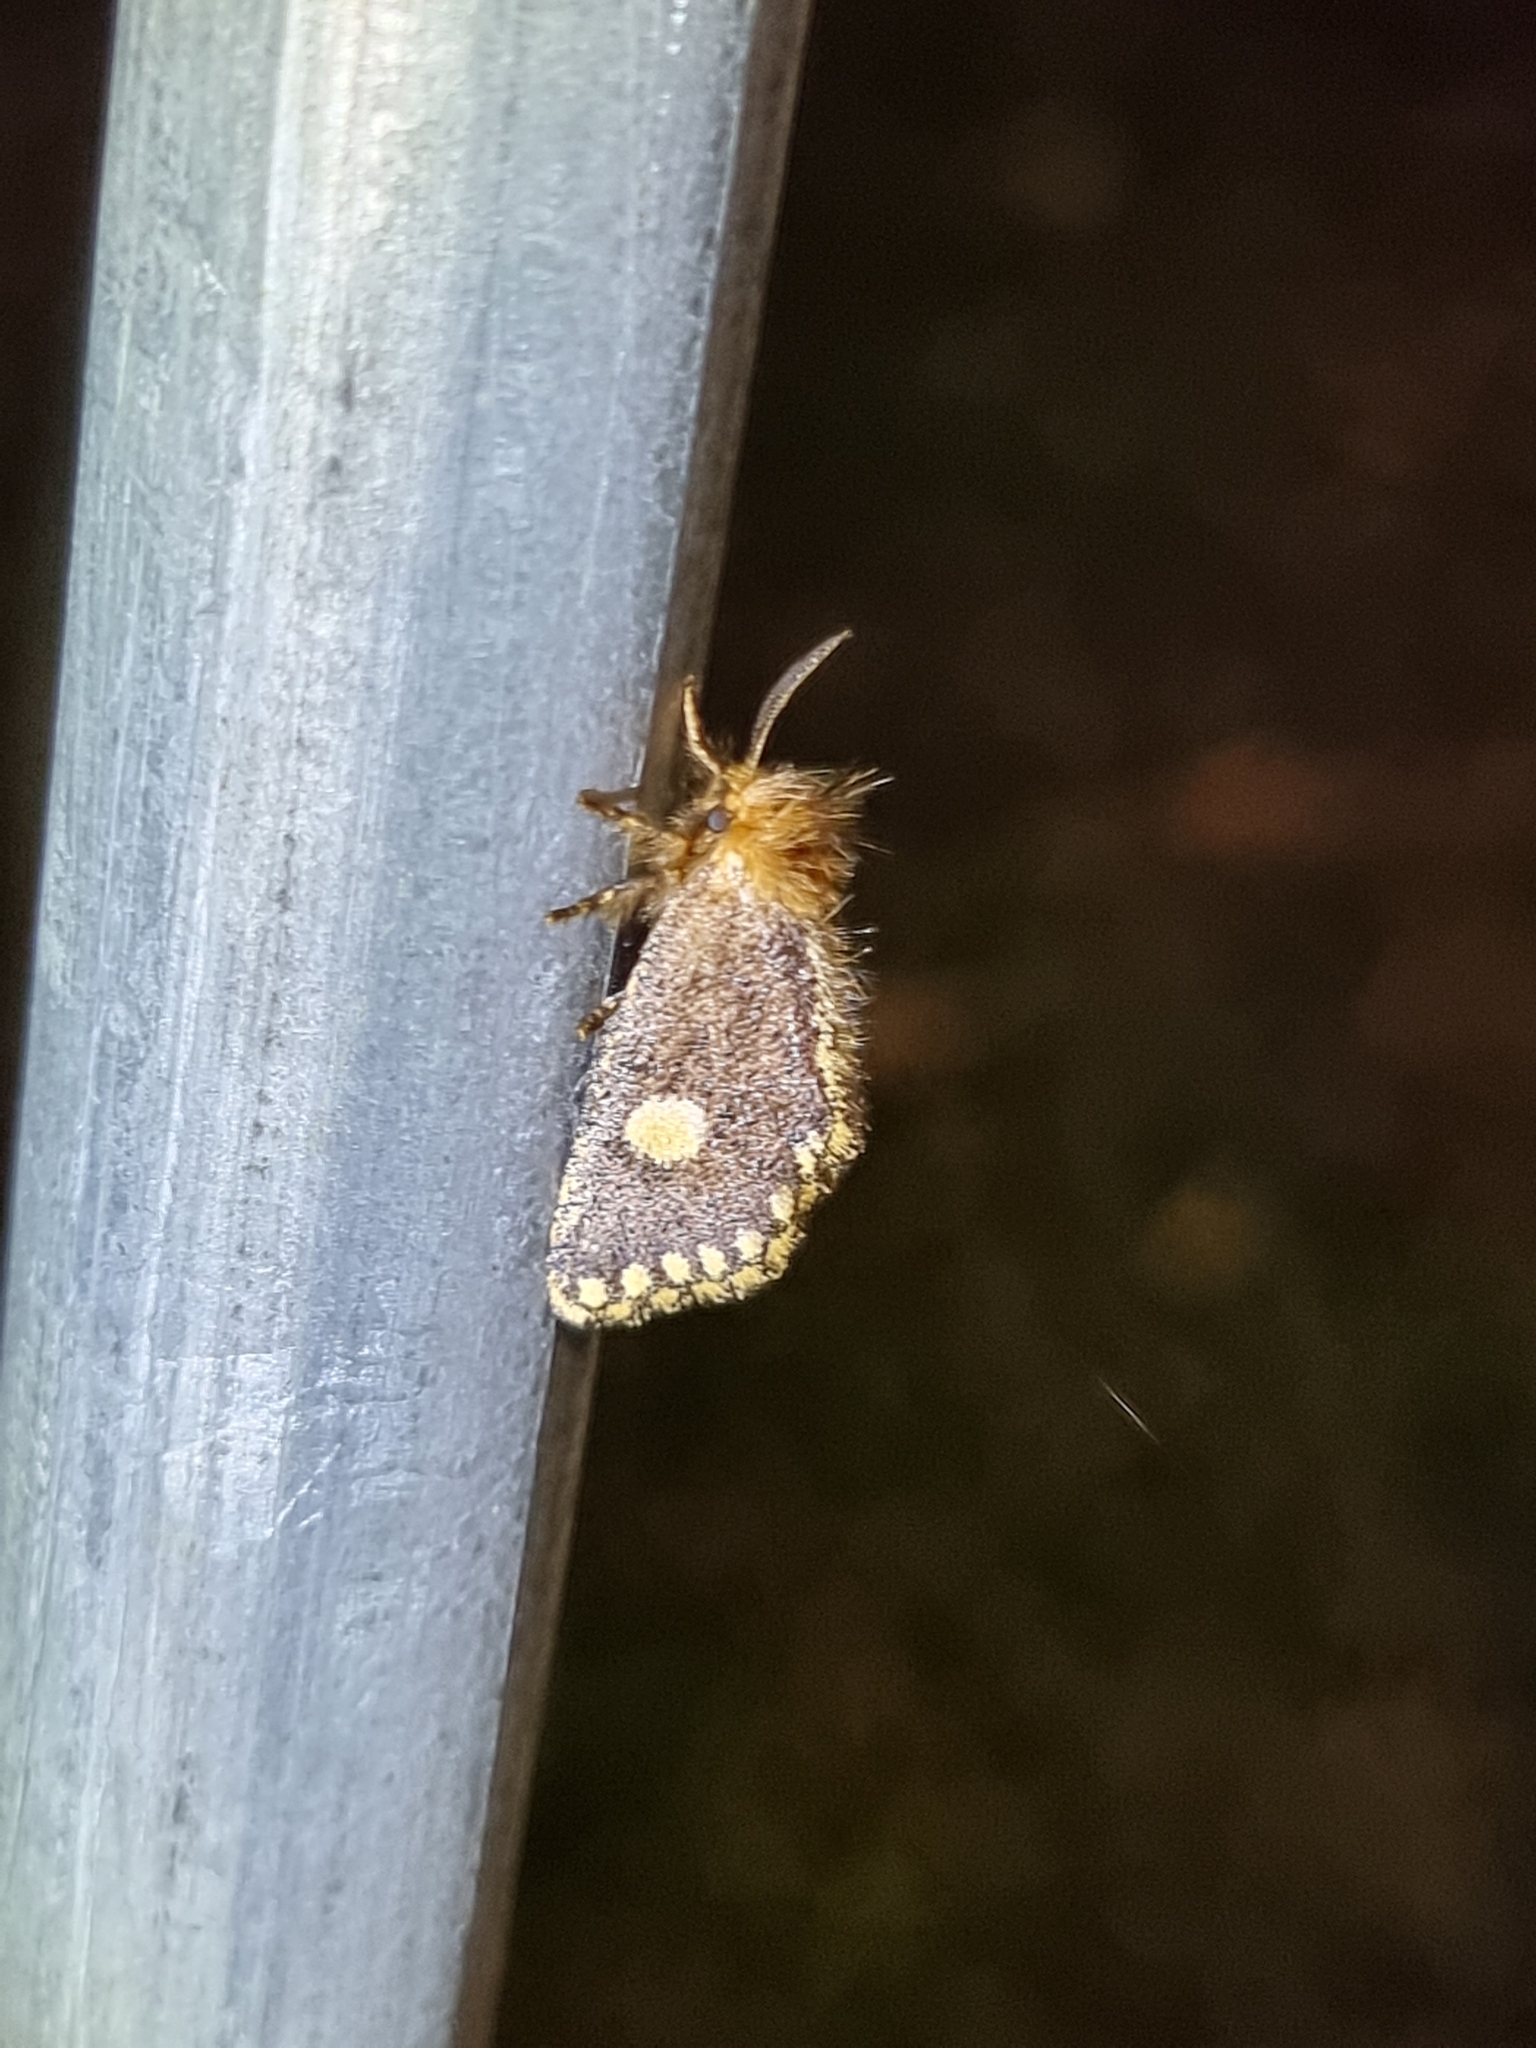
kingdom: Animalia
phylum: Arthropoda
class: Insecta
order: Lepidoptera
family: Notodontidae
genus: Epicoma
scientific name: Epicoma protrahens
